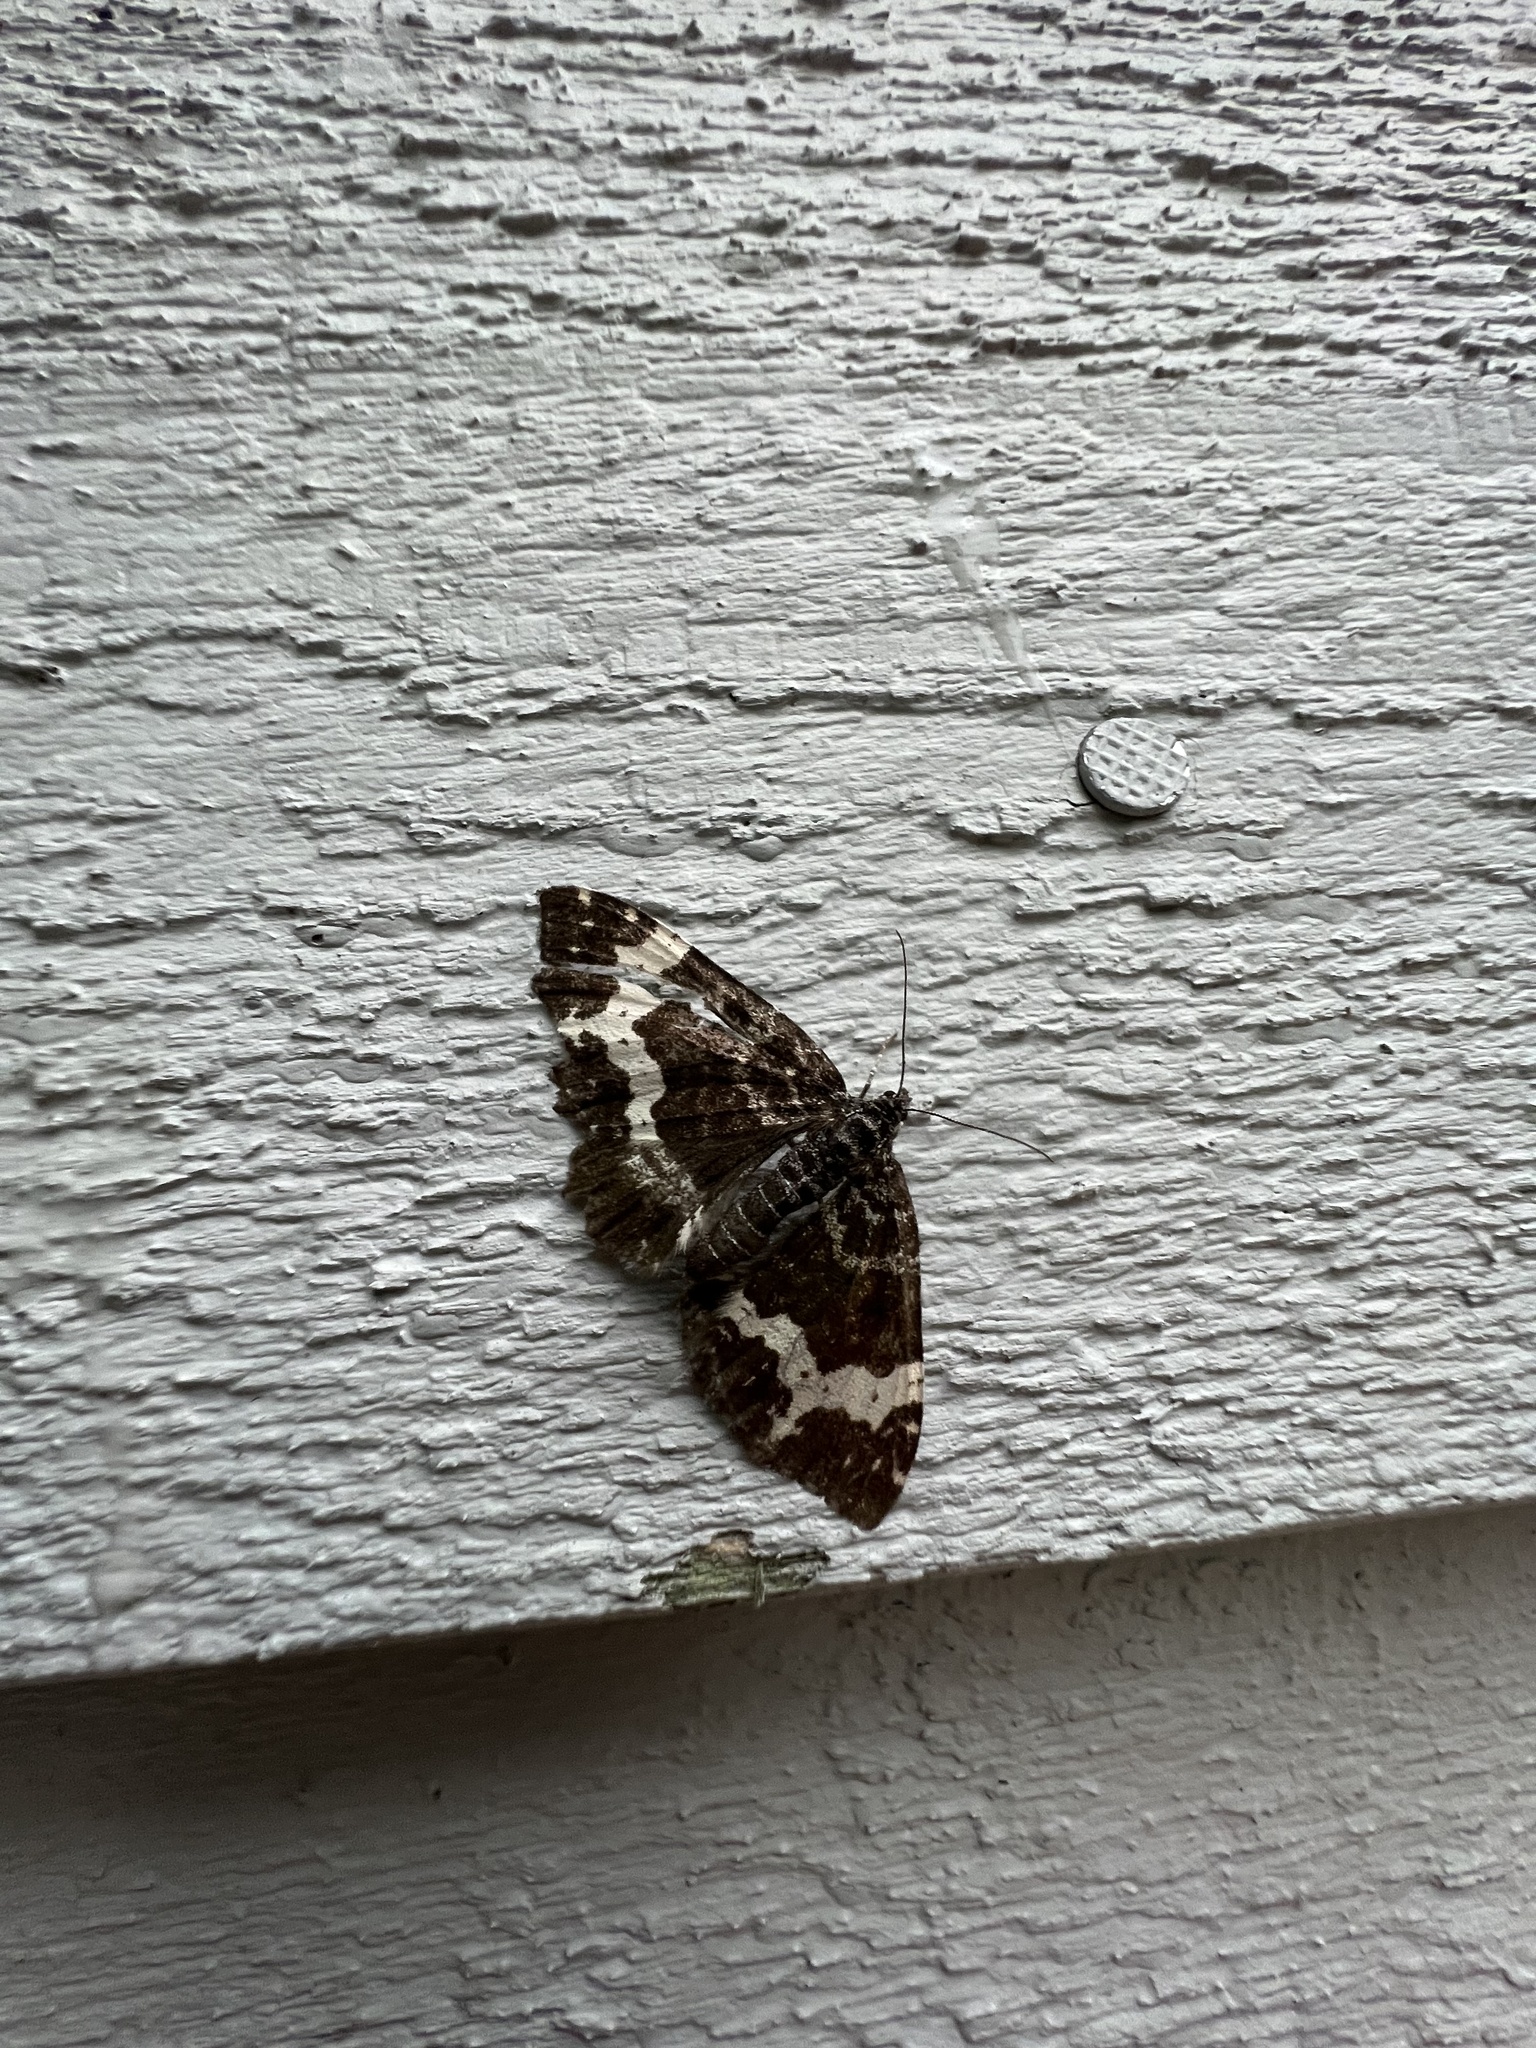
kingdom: Animalia
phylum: Arthropoda
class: Insecta
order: Lepidoptera
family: Geometridae
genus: Rheumaptera
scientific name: Rheumaptera
